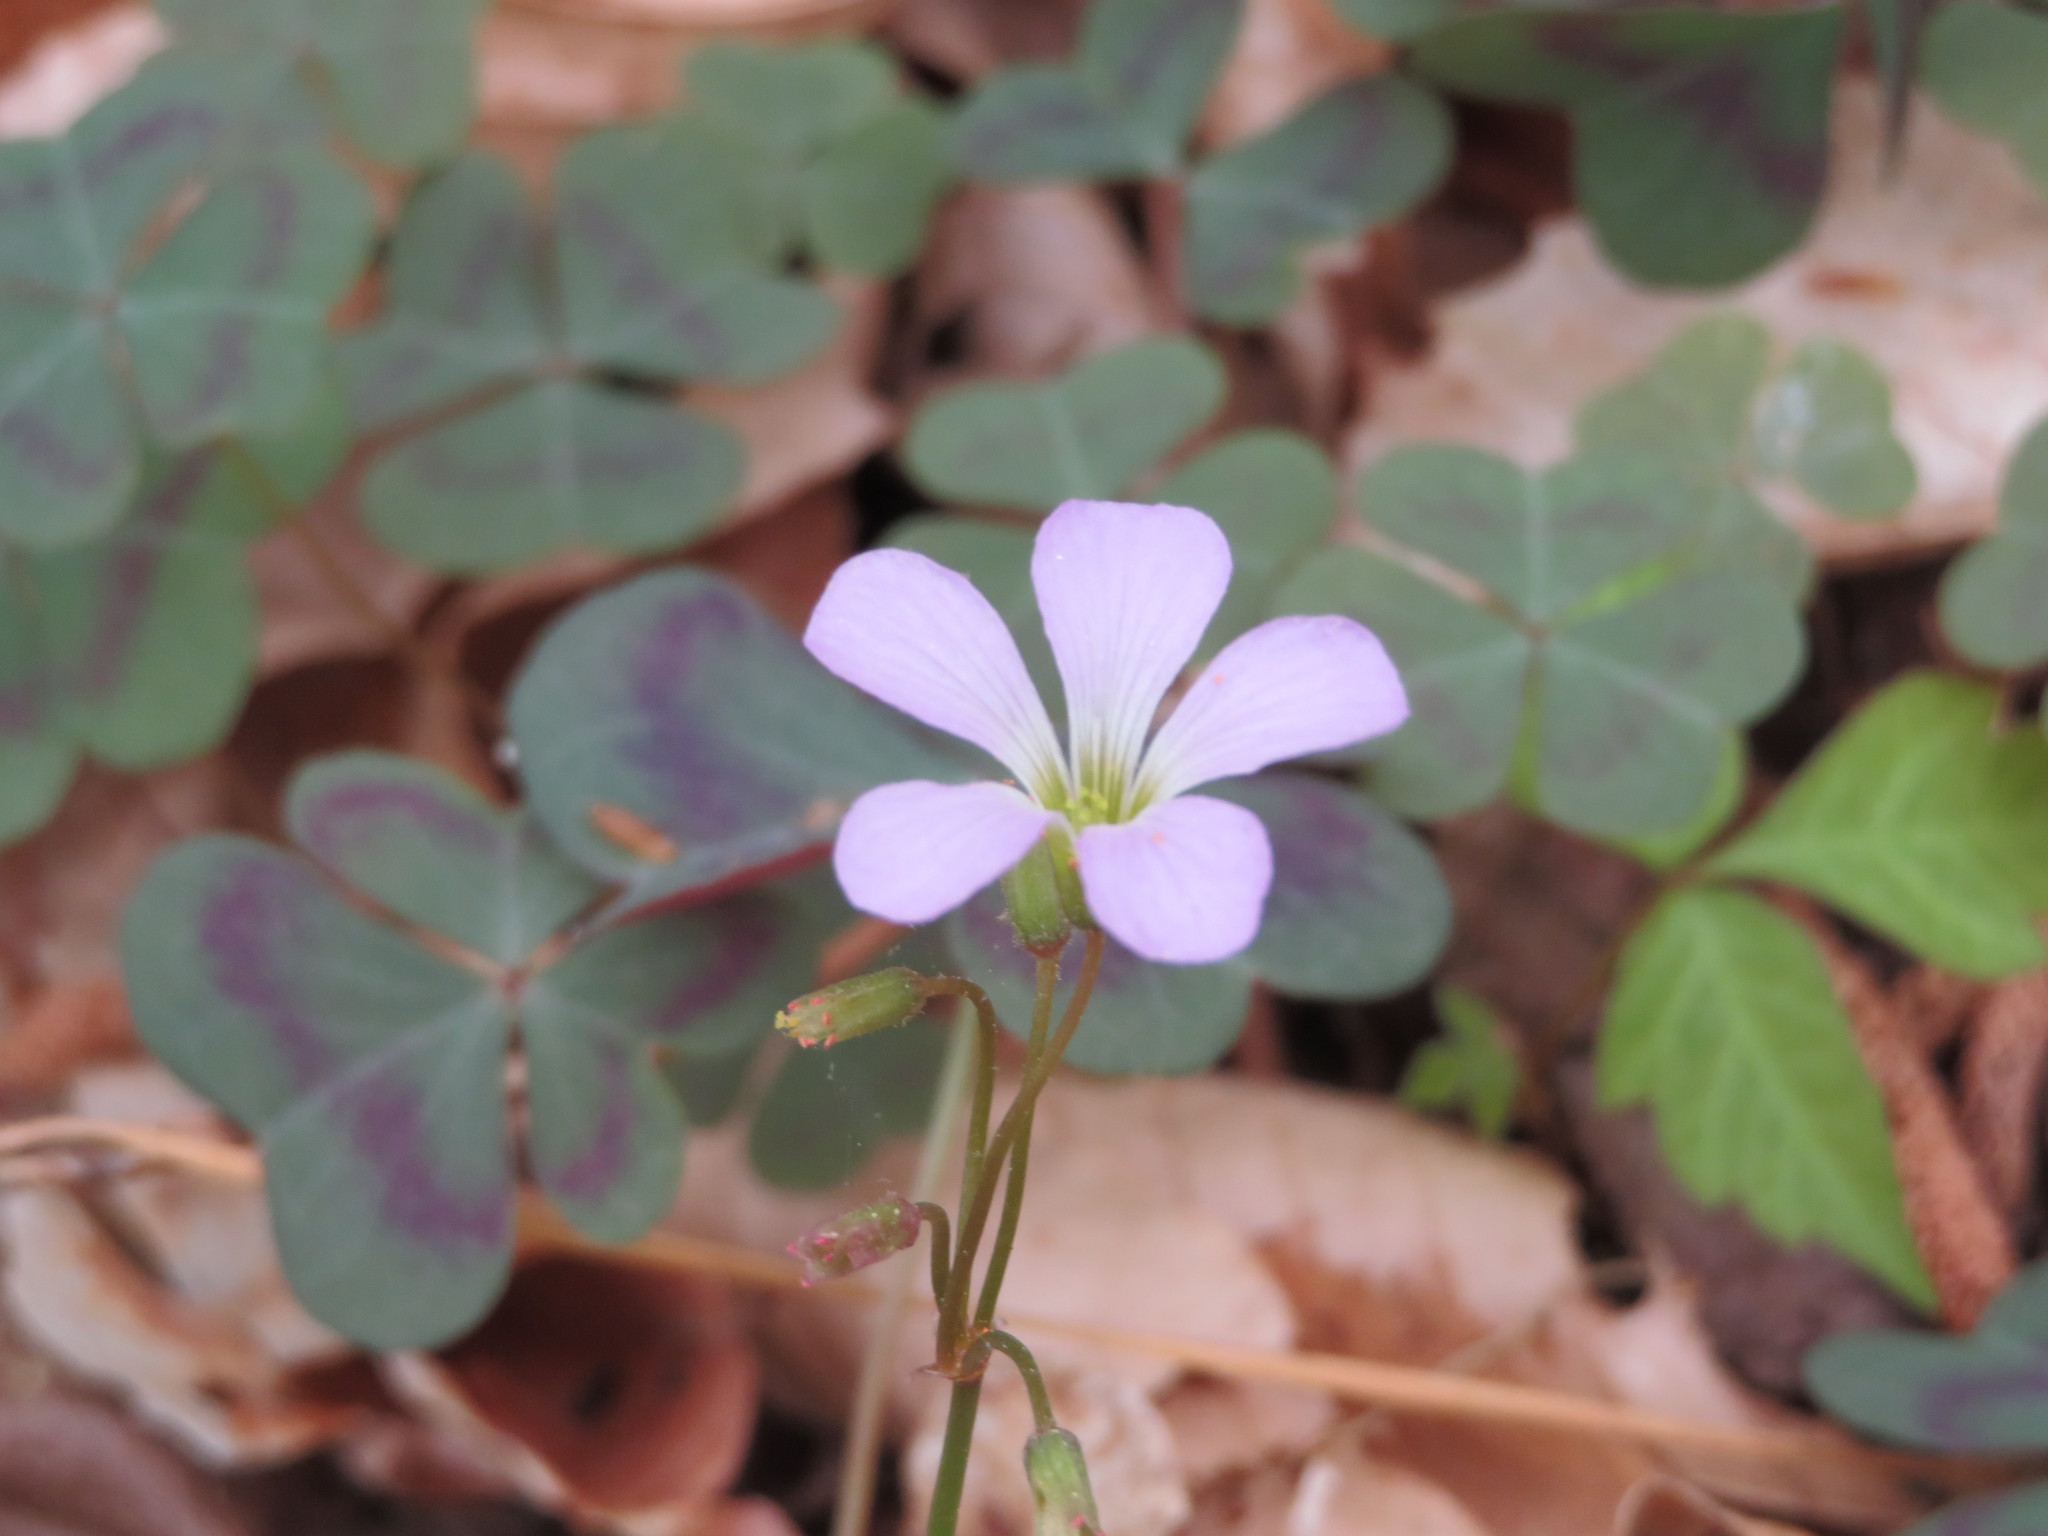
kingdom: Plantae
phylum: Tracheophyta
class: Magnoliopsida
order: Oxalidales
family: Oxalidaceae
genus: Oxalis
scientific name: Oxalis violacea
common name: Violet wood-sorrel
